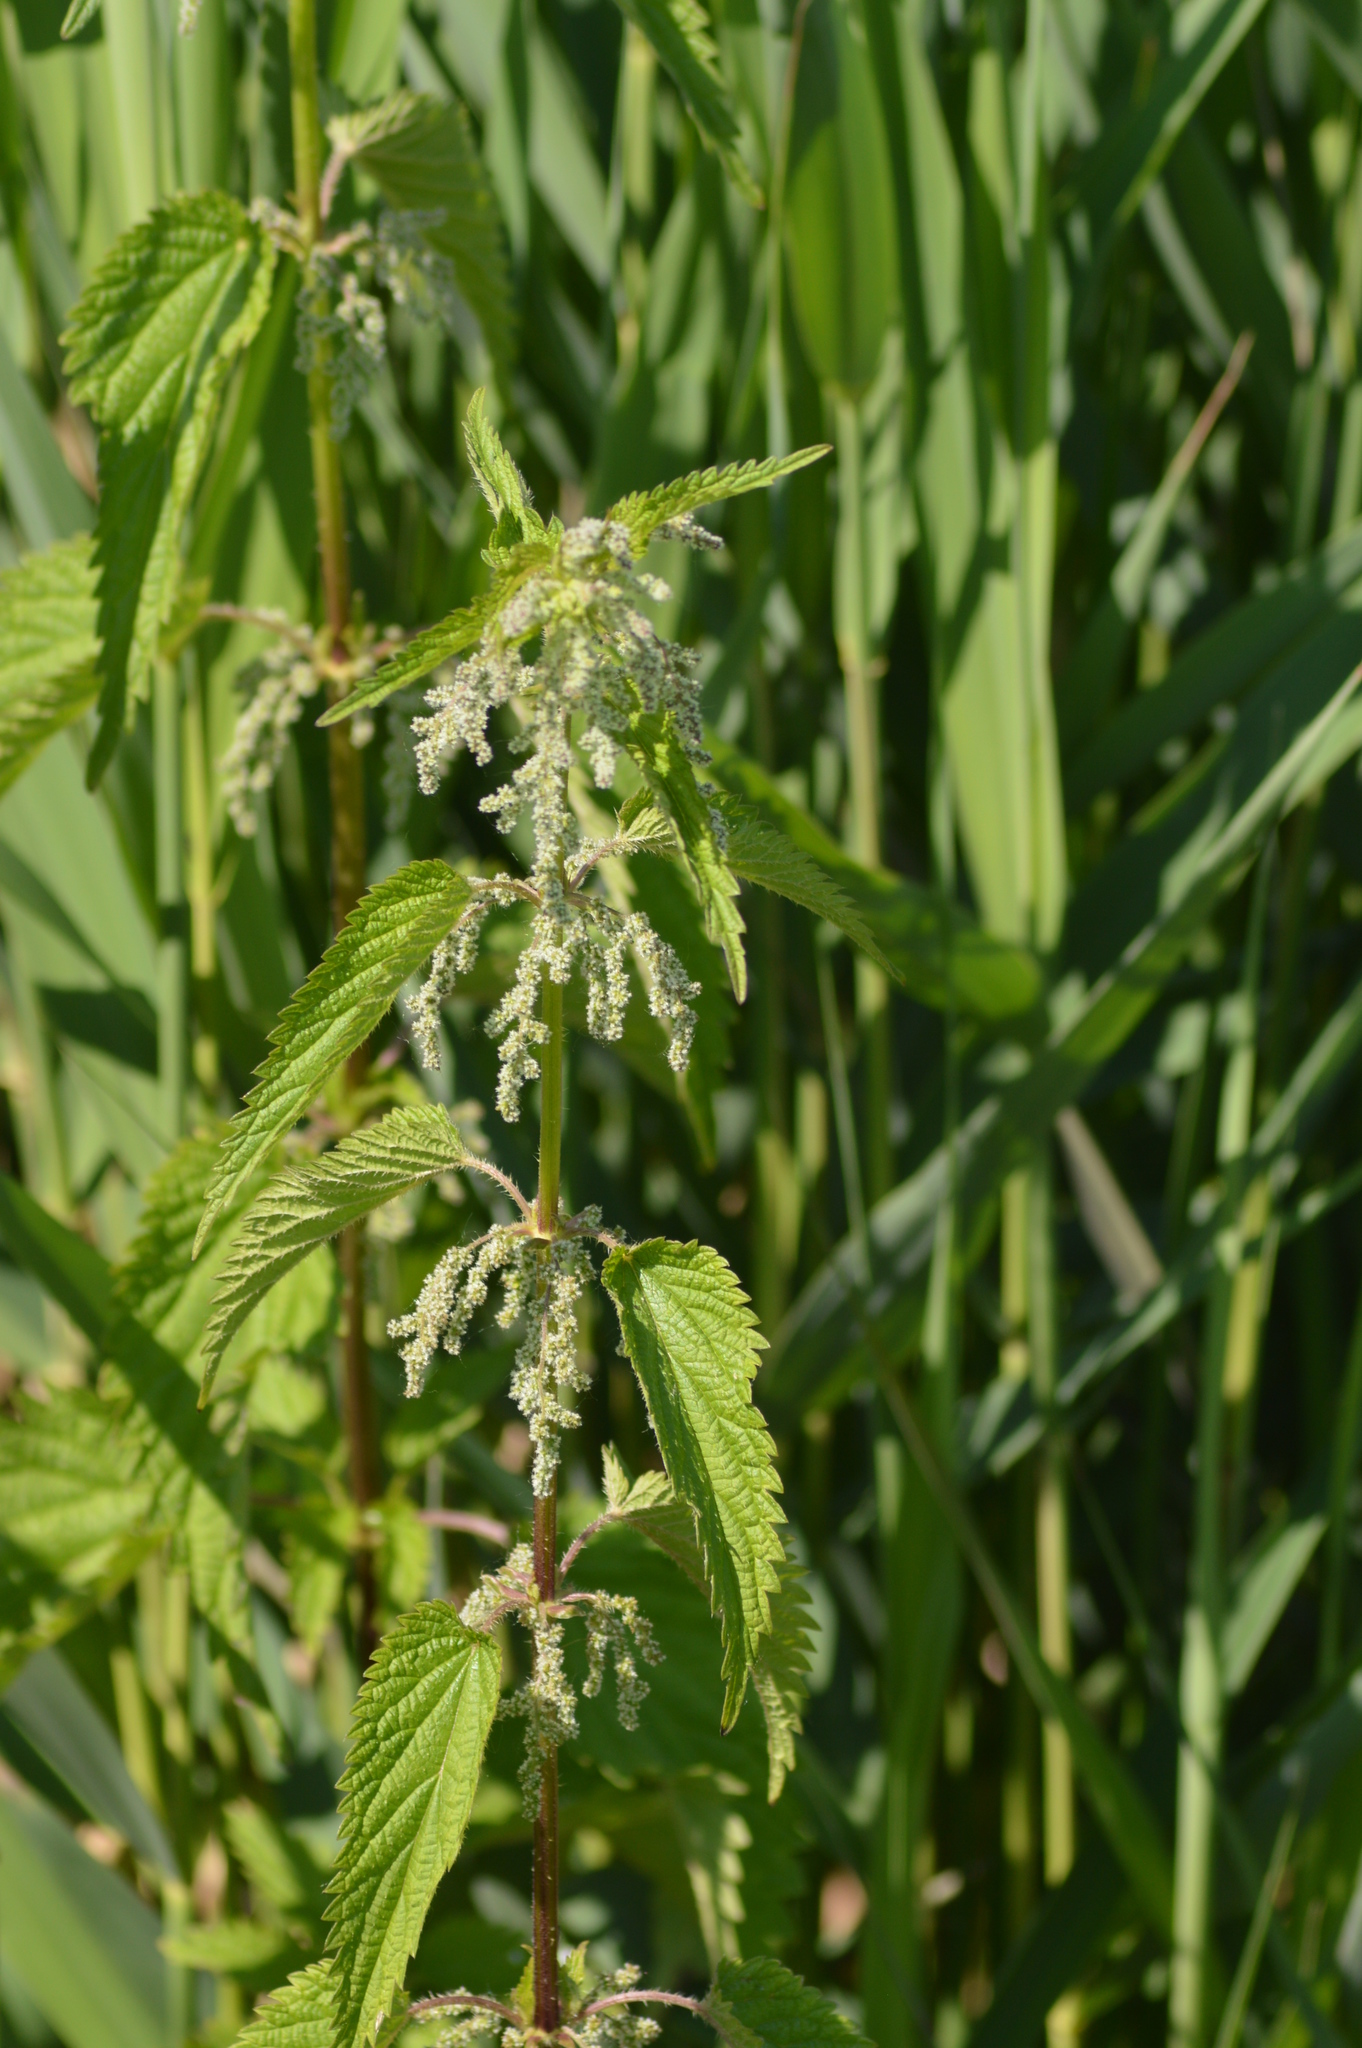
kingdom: Plantae
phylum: Tracheophyta
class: Magnoliopsida
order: Rosales
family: Urticaceae
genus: Urtica
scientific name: Urtica dioica
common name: Common nettle
